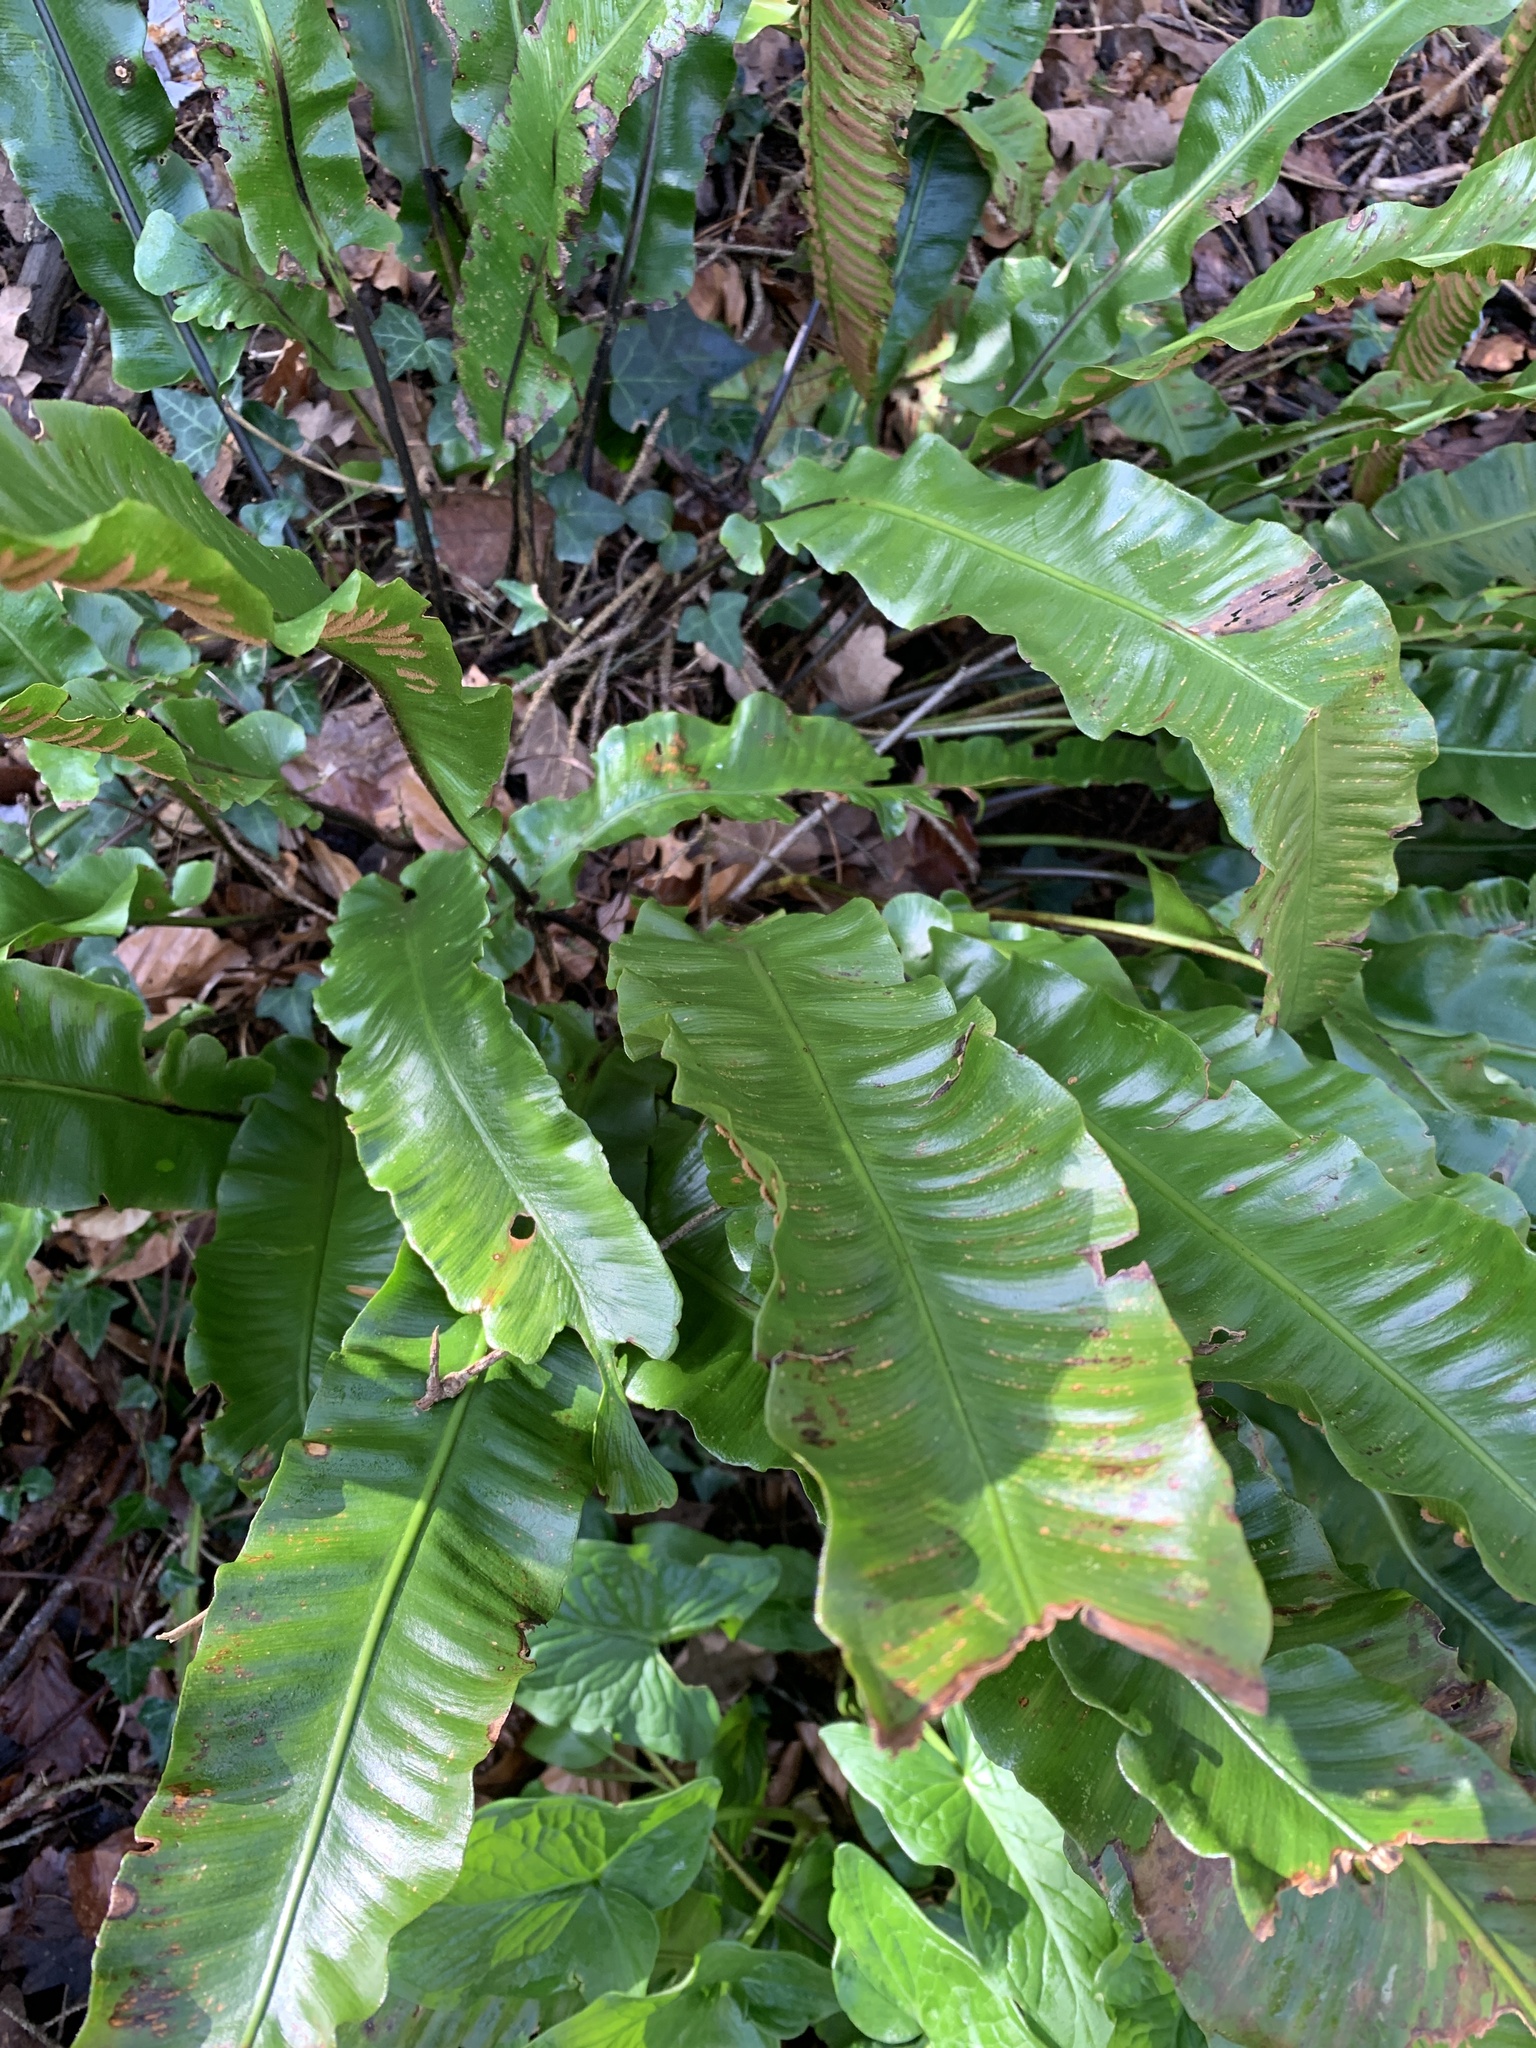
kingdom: Plantae
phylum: Tracheophyta
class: Polypodiopsida
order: Polypodiales
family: Aspleniaceae
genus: Asplenium
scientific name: Asplenium scolopendrium
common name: Hart's-tongue fern
